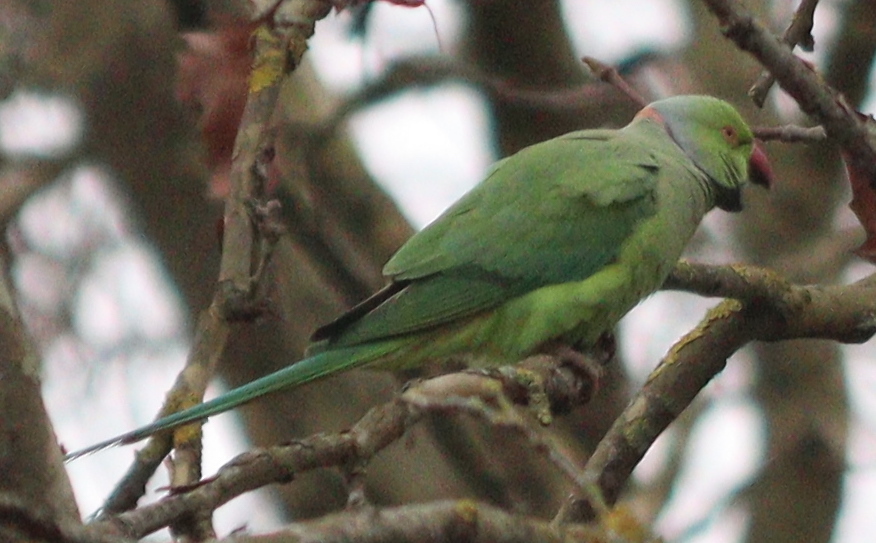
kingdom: Animalia
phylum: Chordata
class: Aves
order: Psittaciformes
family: Psittacidae
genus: Psittacula
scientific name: Psittacula krameri
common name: Rose-ringed parakeet
